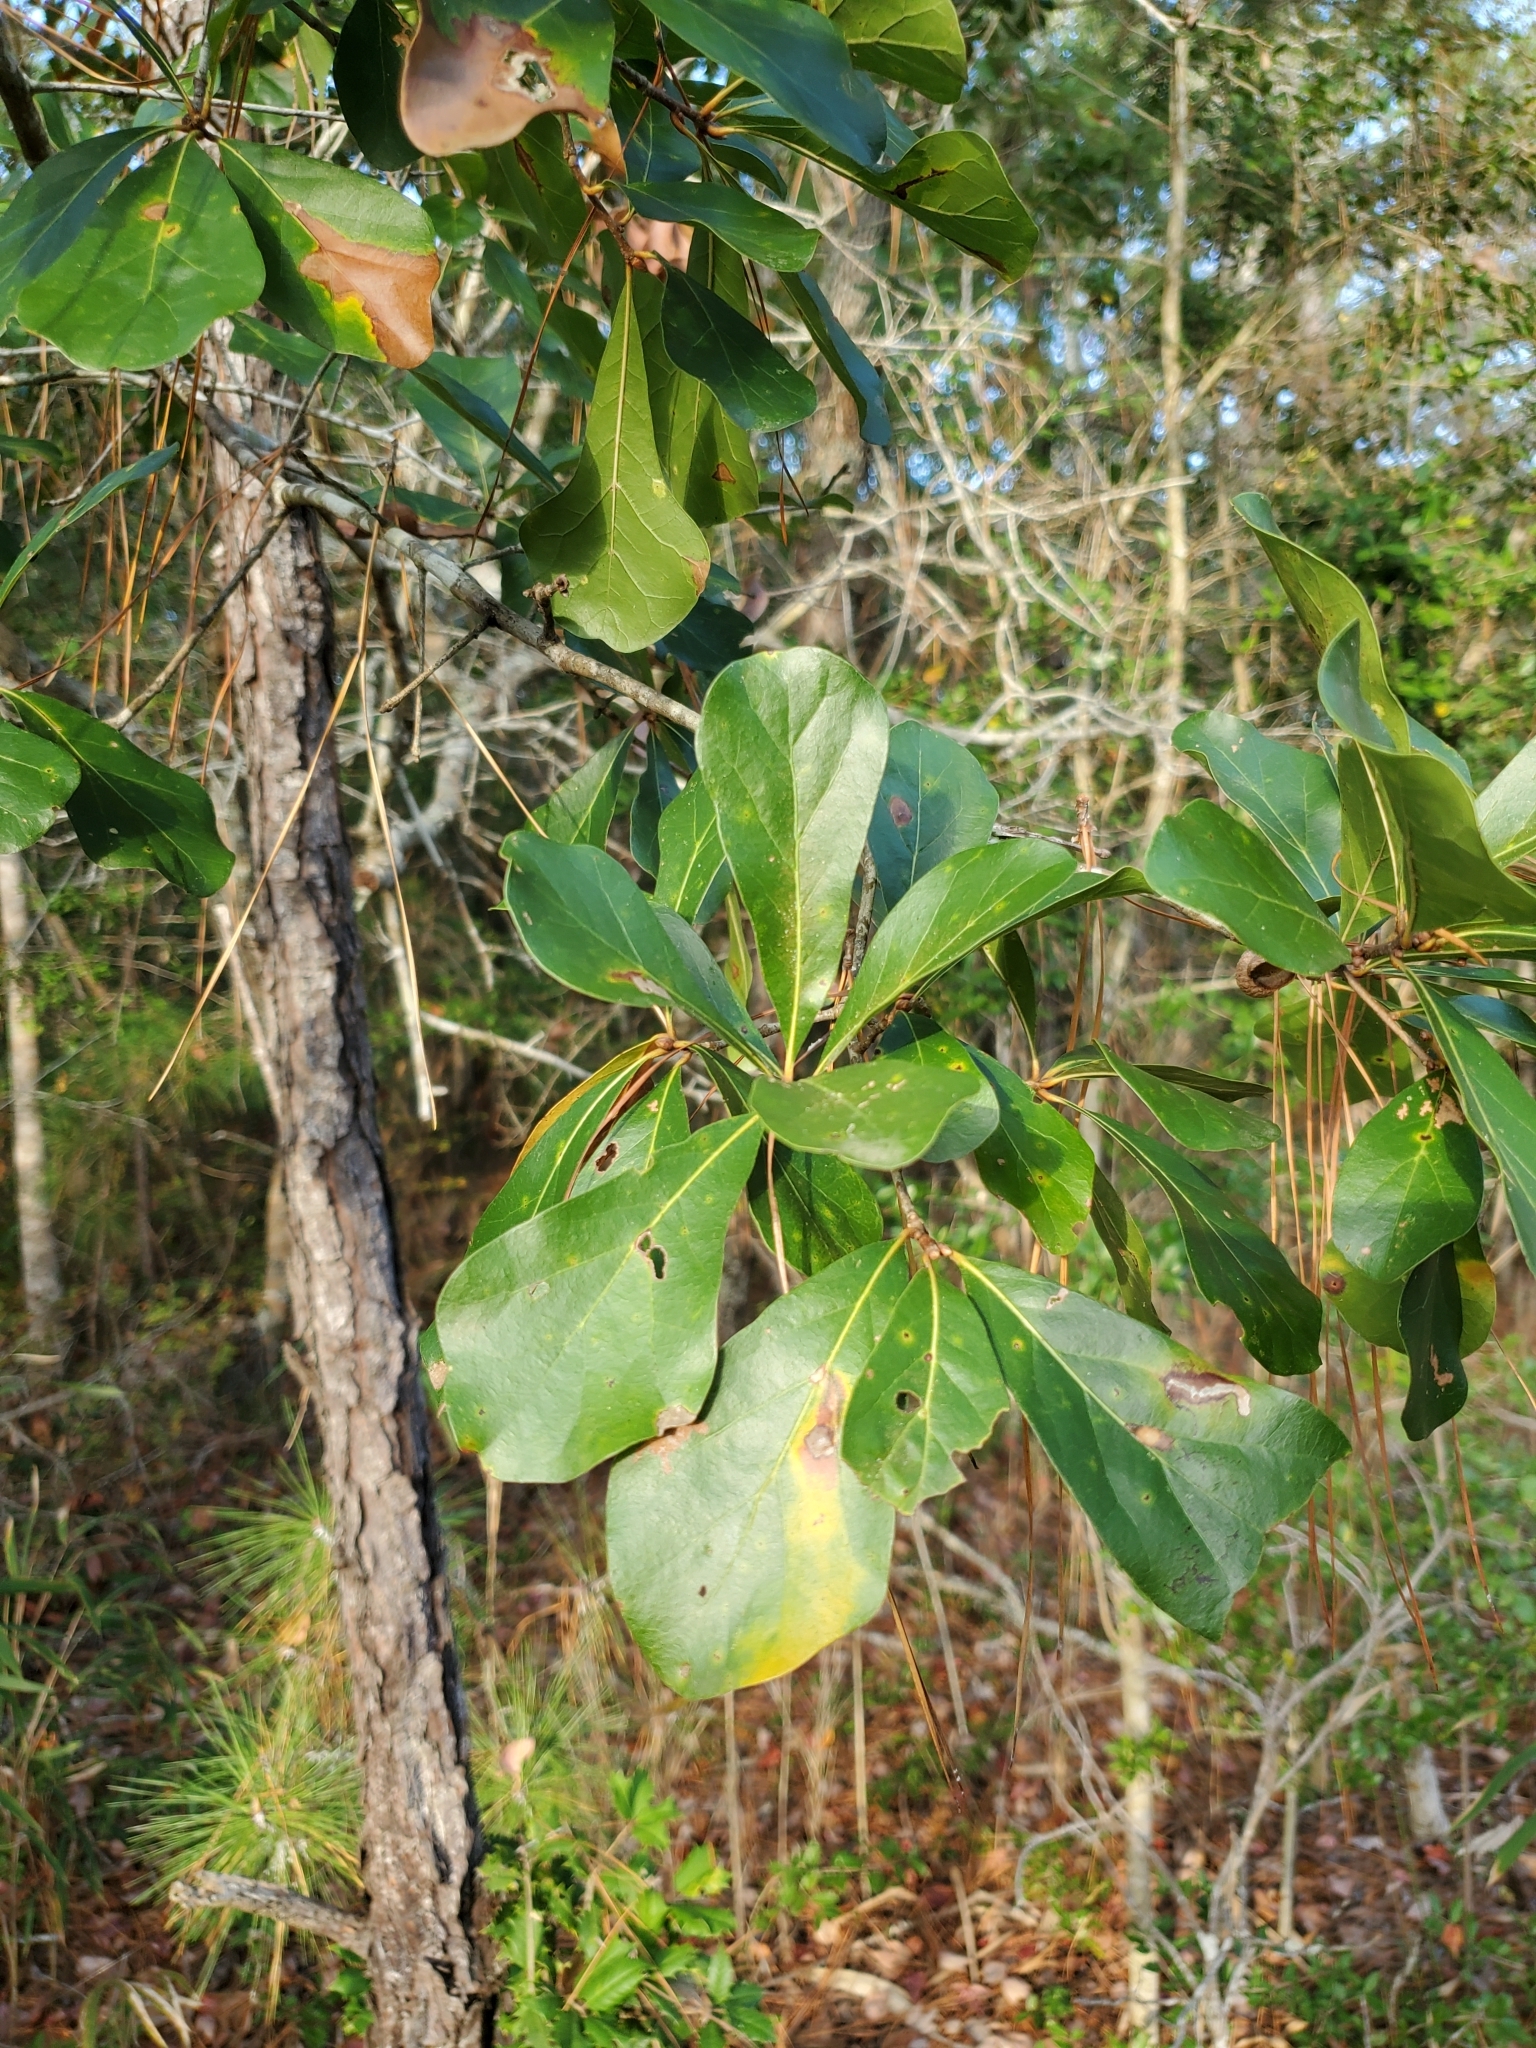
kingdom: Plantae
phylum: Tracheophyta
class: Magnoliopsida
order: Fagales
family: Fagaceae
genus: Quercus
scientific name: Quercus nigra
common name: Water oak
